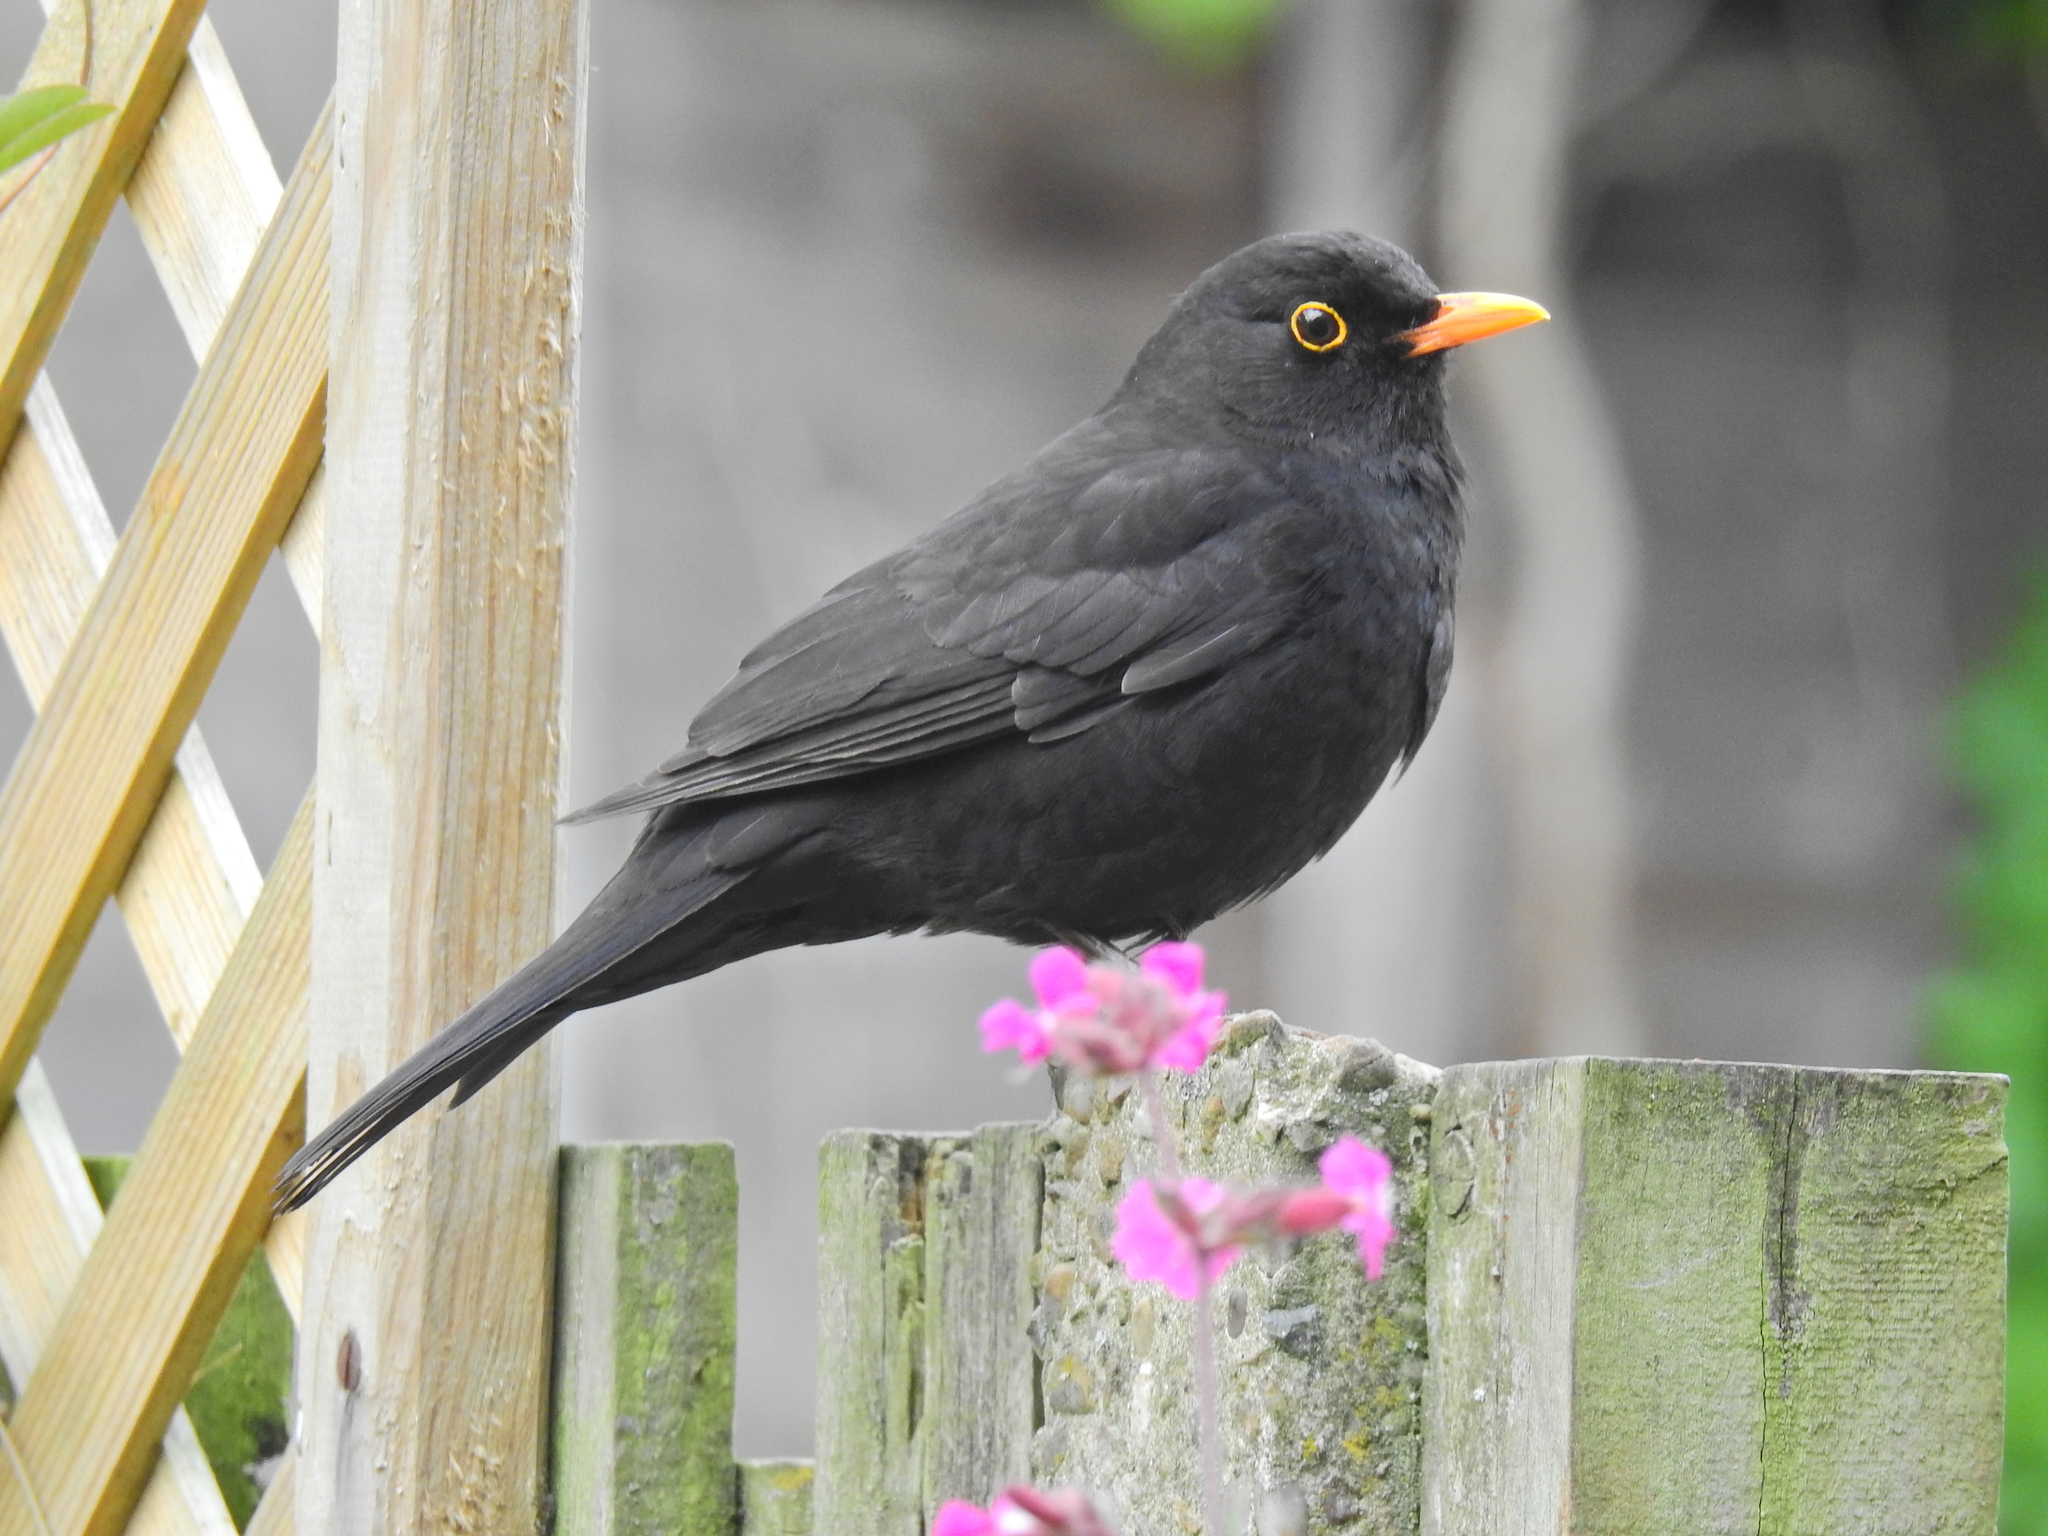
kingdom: Animalia
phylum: Chordata
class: Aves
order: Passeriformes
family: Turdidae
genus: Turdus
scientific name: Turdus merula
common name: Common blackbird
